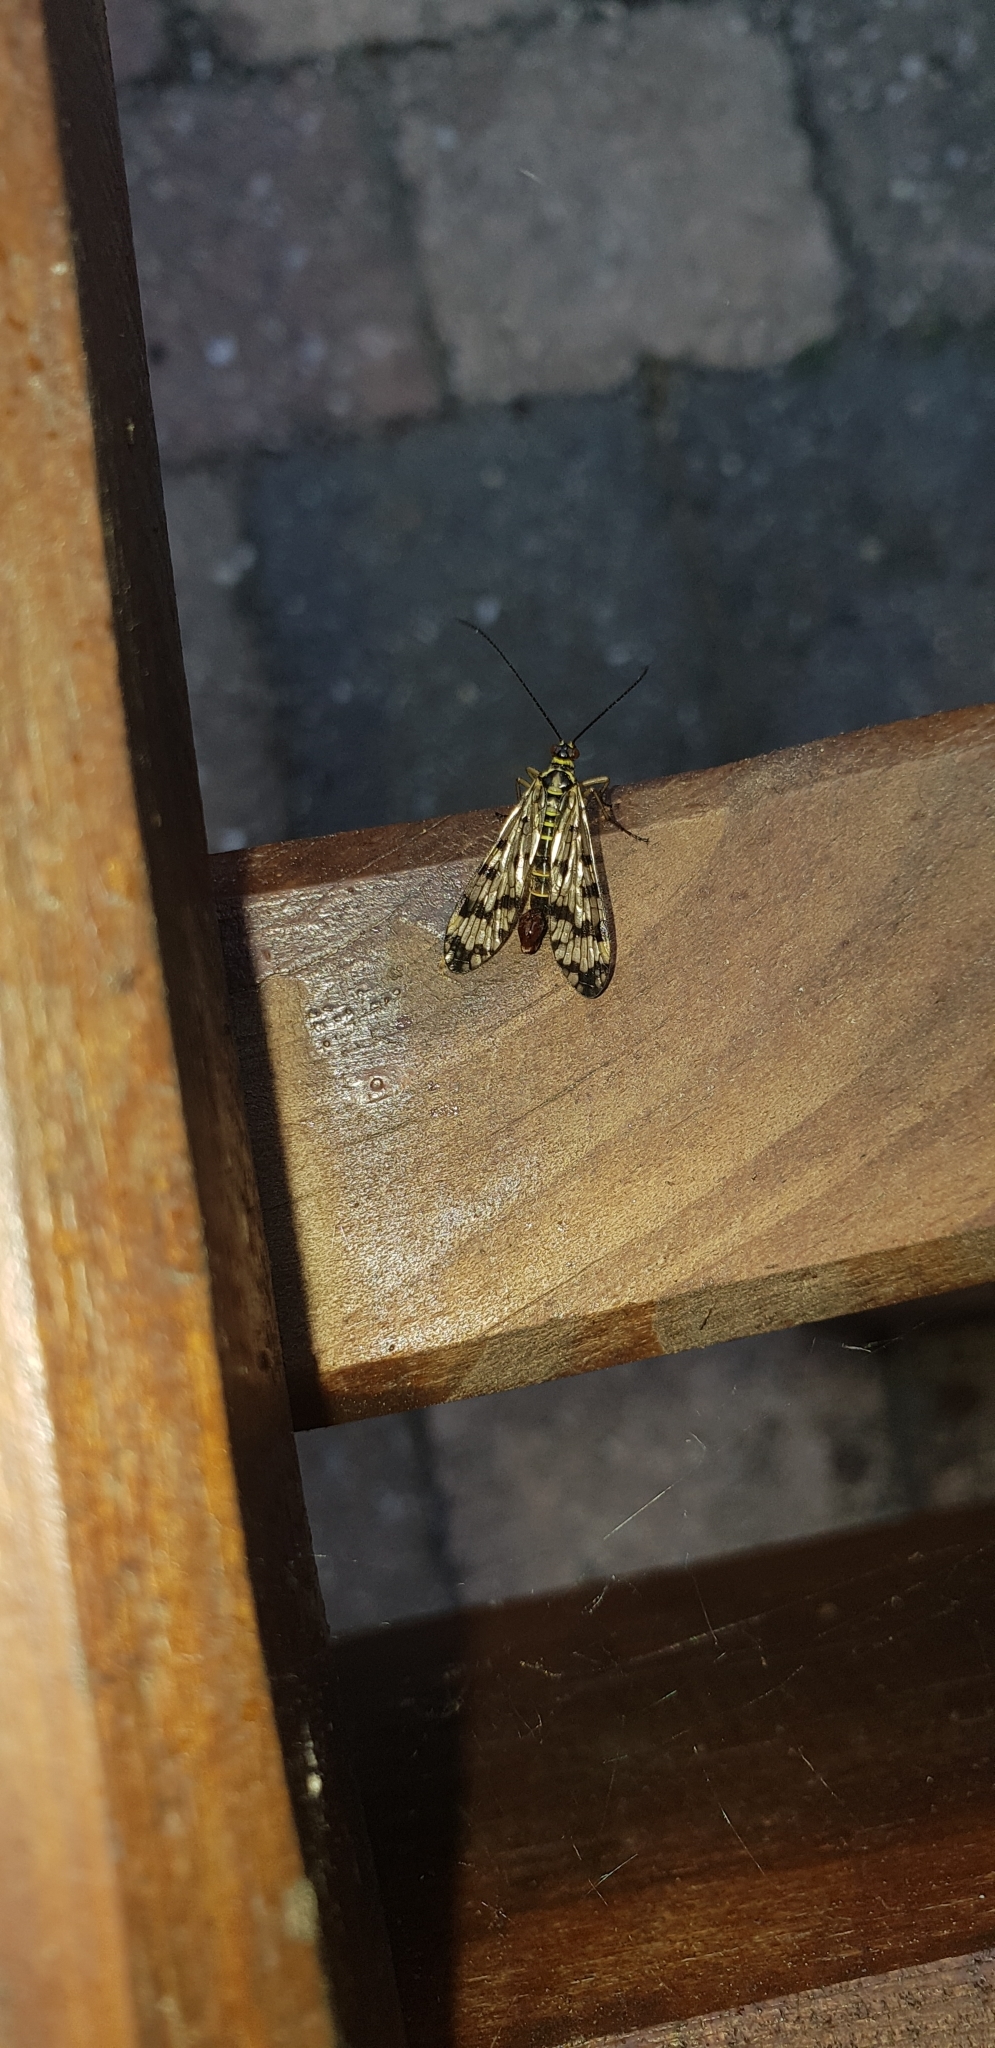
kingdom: Animalia
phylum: Arthropoda
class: Insecta
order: Mecoptera
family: Panorpidae
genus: Panorpa
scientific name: Panorpa communis
